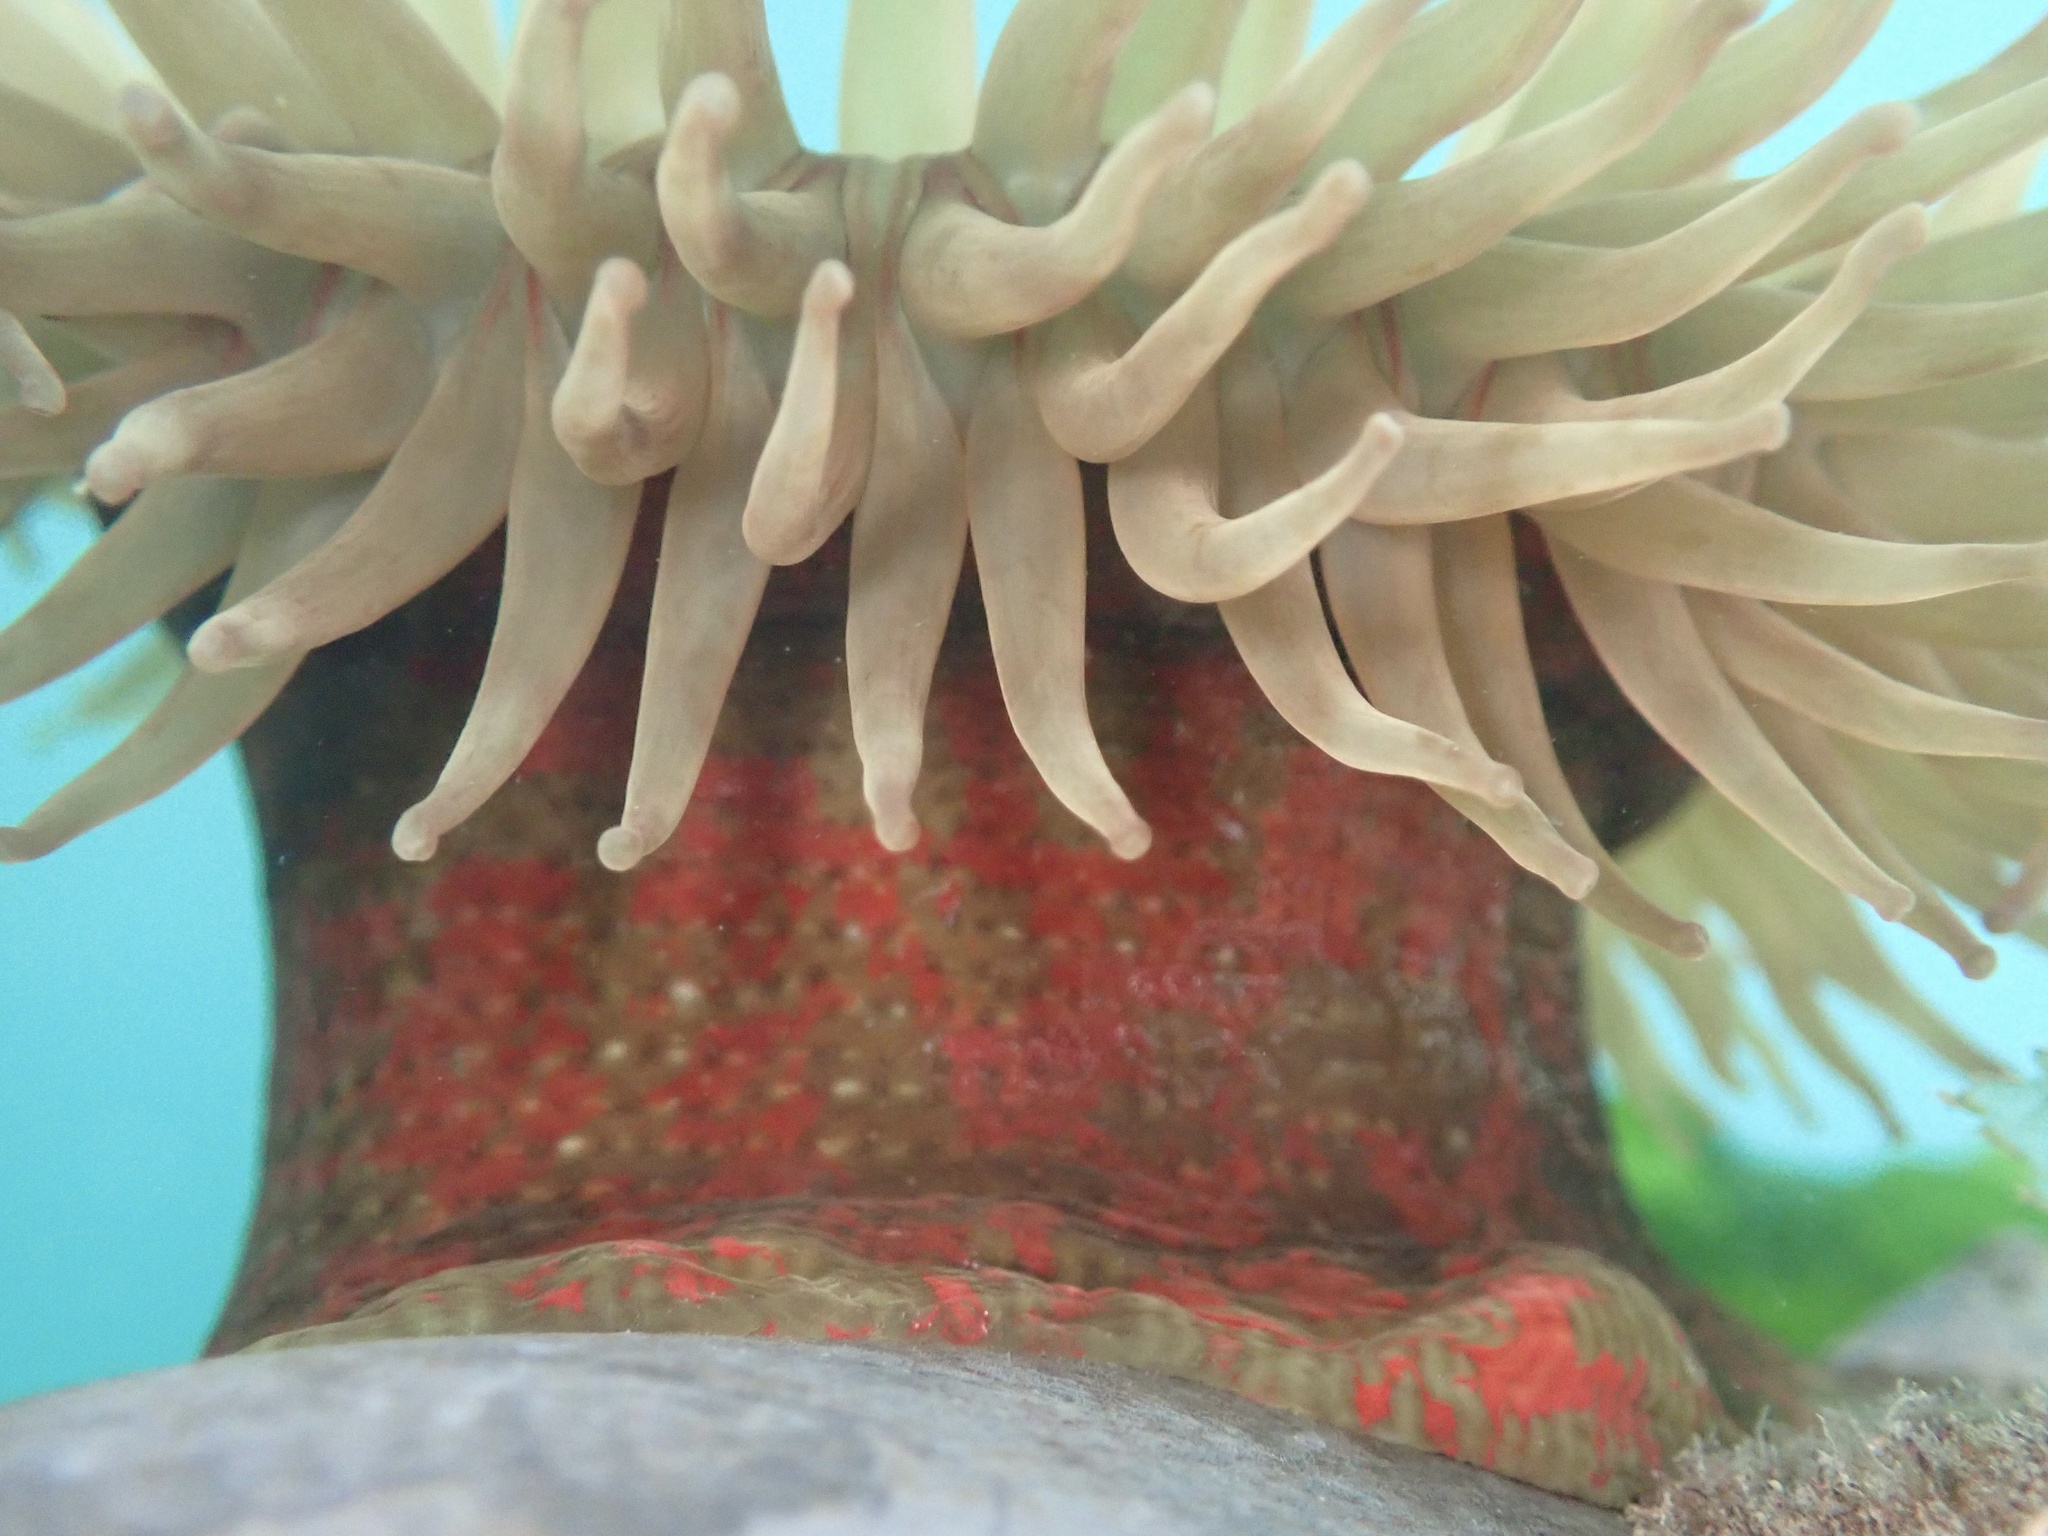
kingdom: Animalia
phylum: Cnidaria
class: Anthozoa
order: Actiniaria
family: Actiniidae
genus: Urticina
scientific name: Urticina grebelnyi
